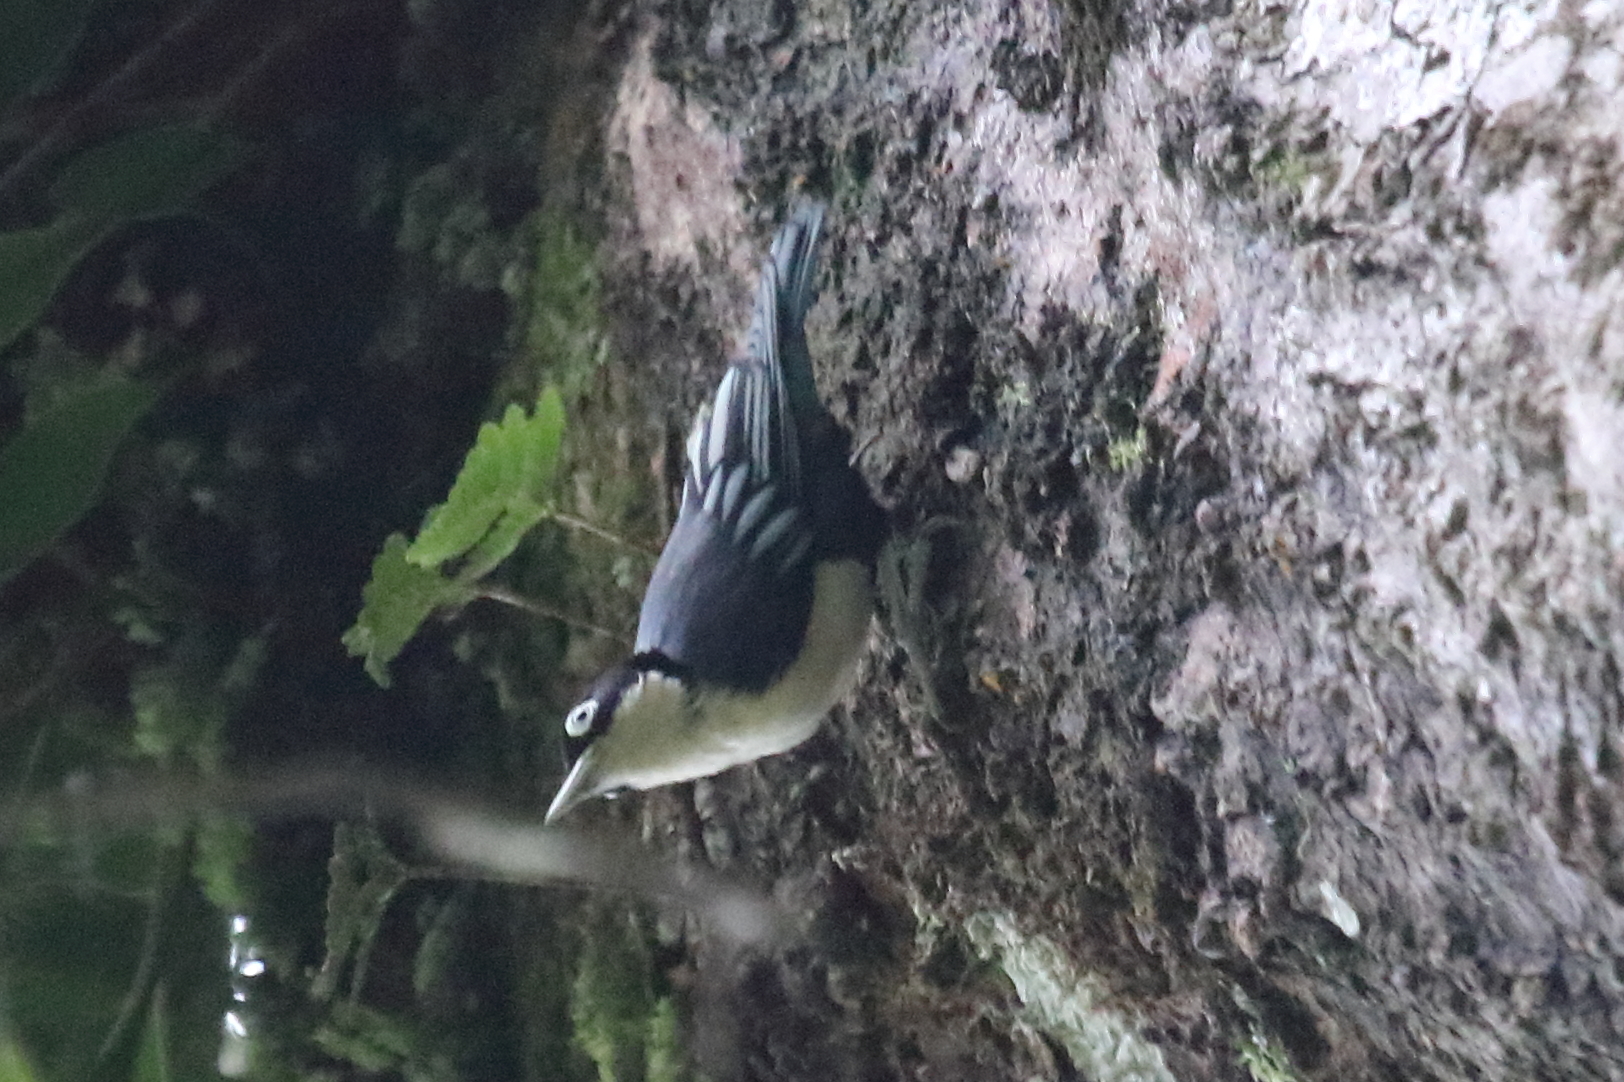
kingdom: Animalia
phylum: Chordata
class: Aves
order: Passeriformes
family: Sittidae
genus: Sitta
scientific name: Sitta azurea
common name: Blue nuthatch
